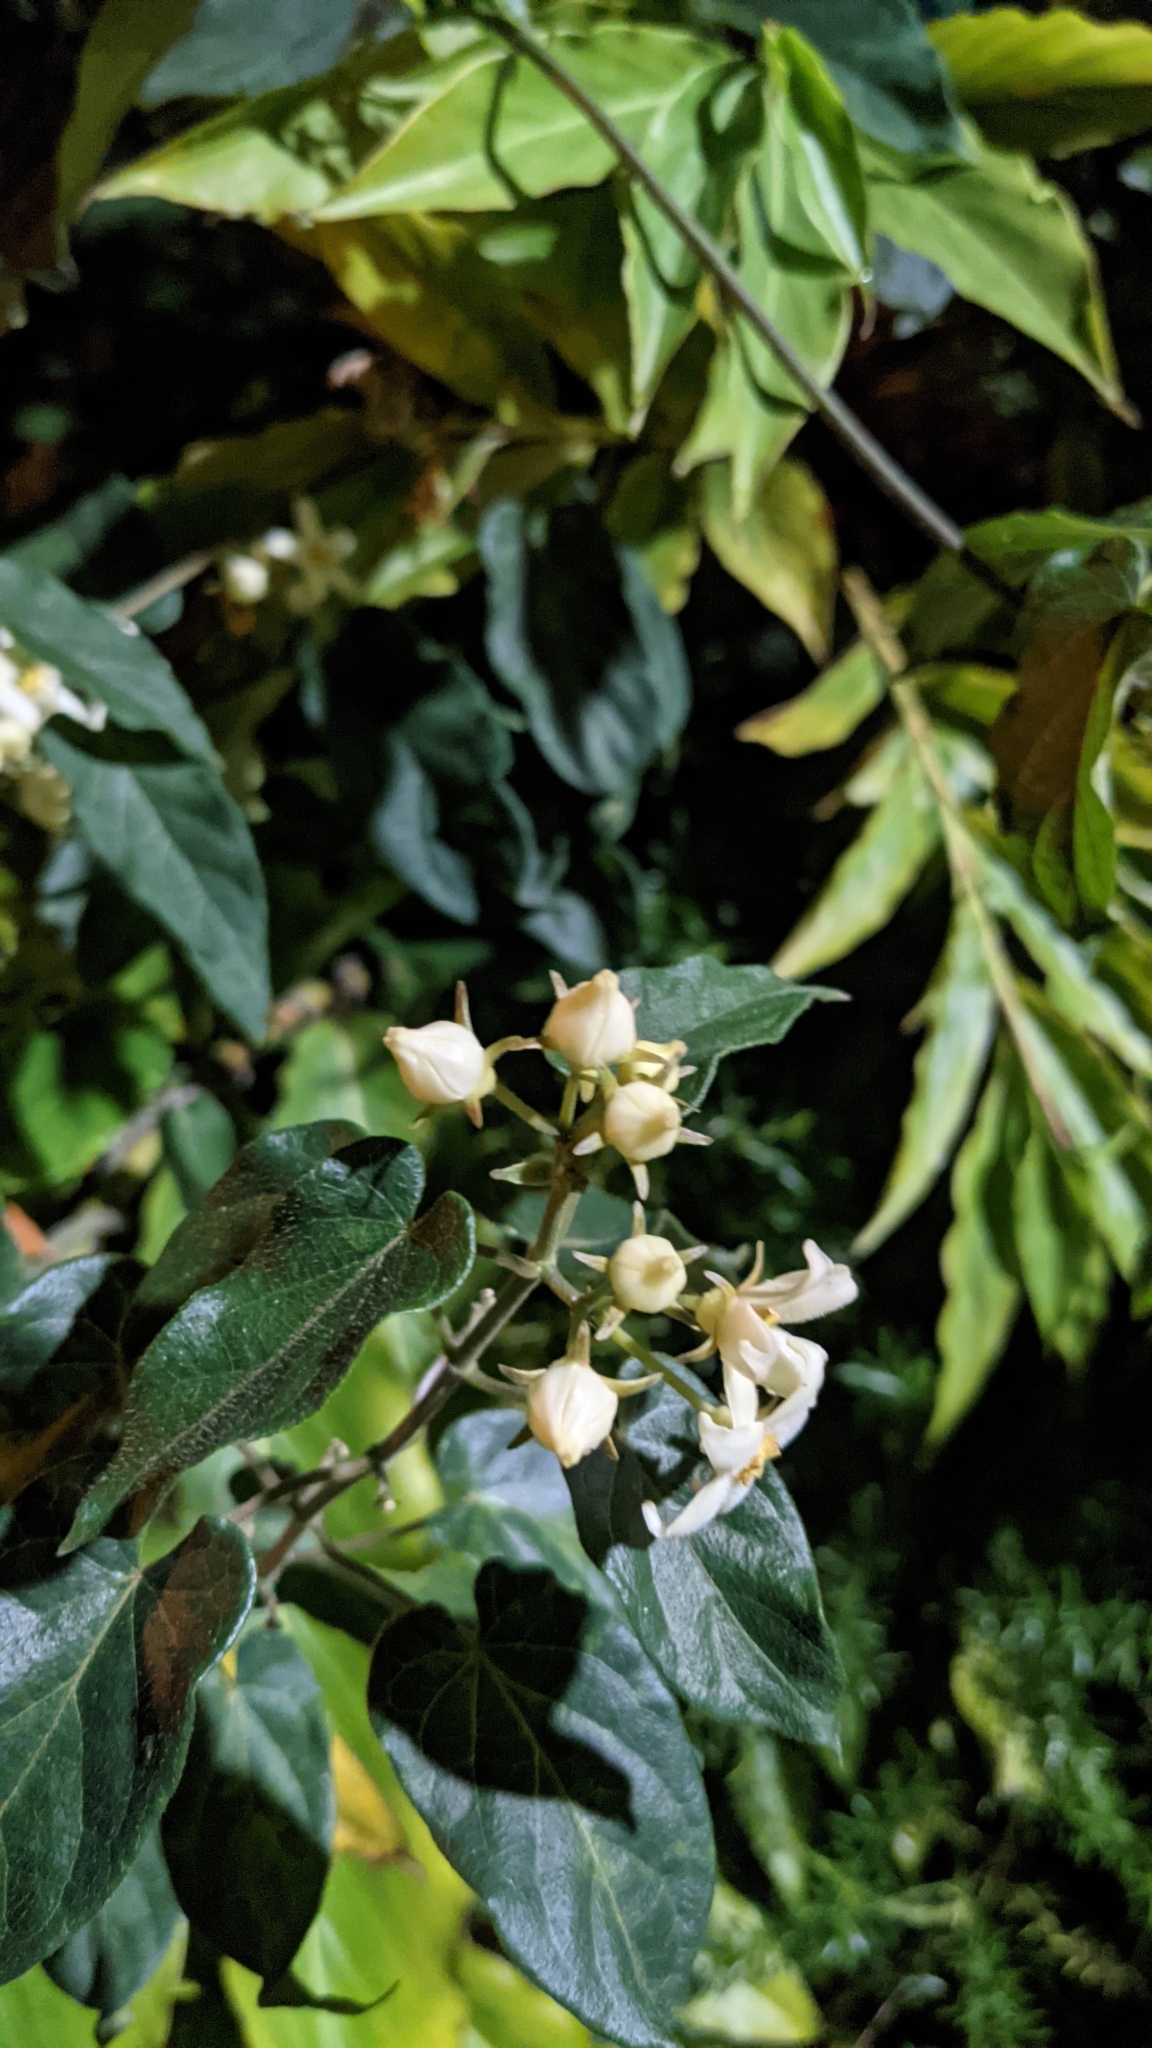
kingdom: Plantae
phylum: Tracheophyta
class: Magnoliopsida
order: Gentianales
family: Apocynaceae
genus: Gonolobus
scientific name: Gonolobus edulis
